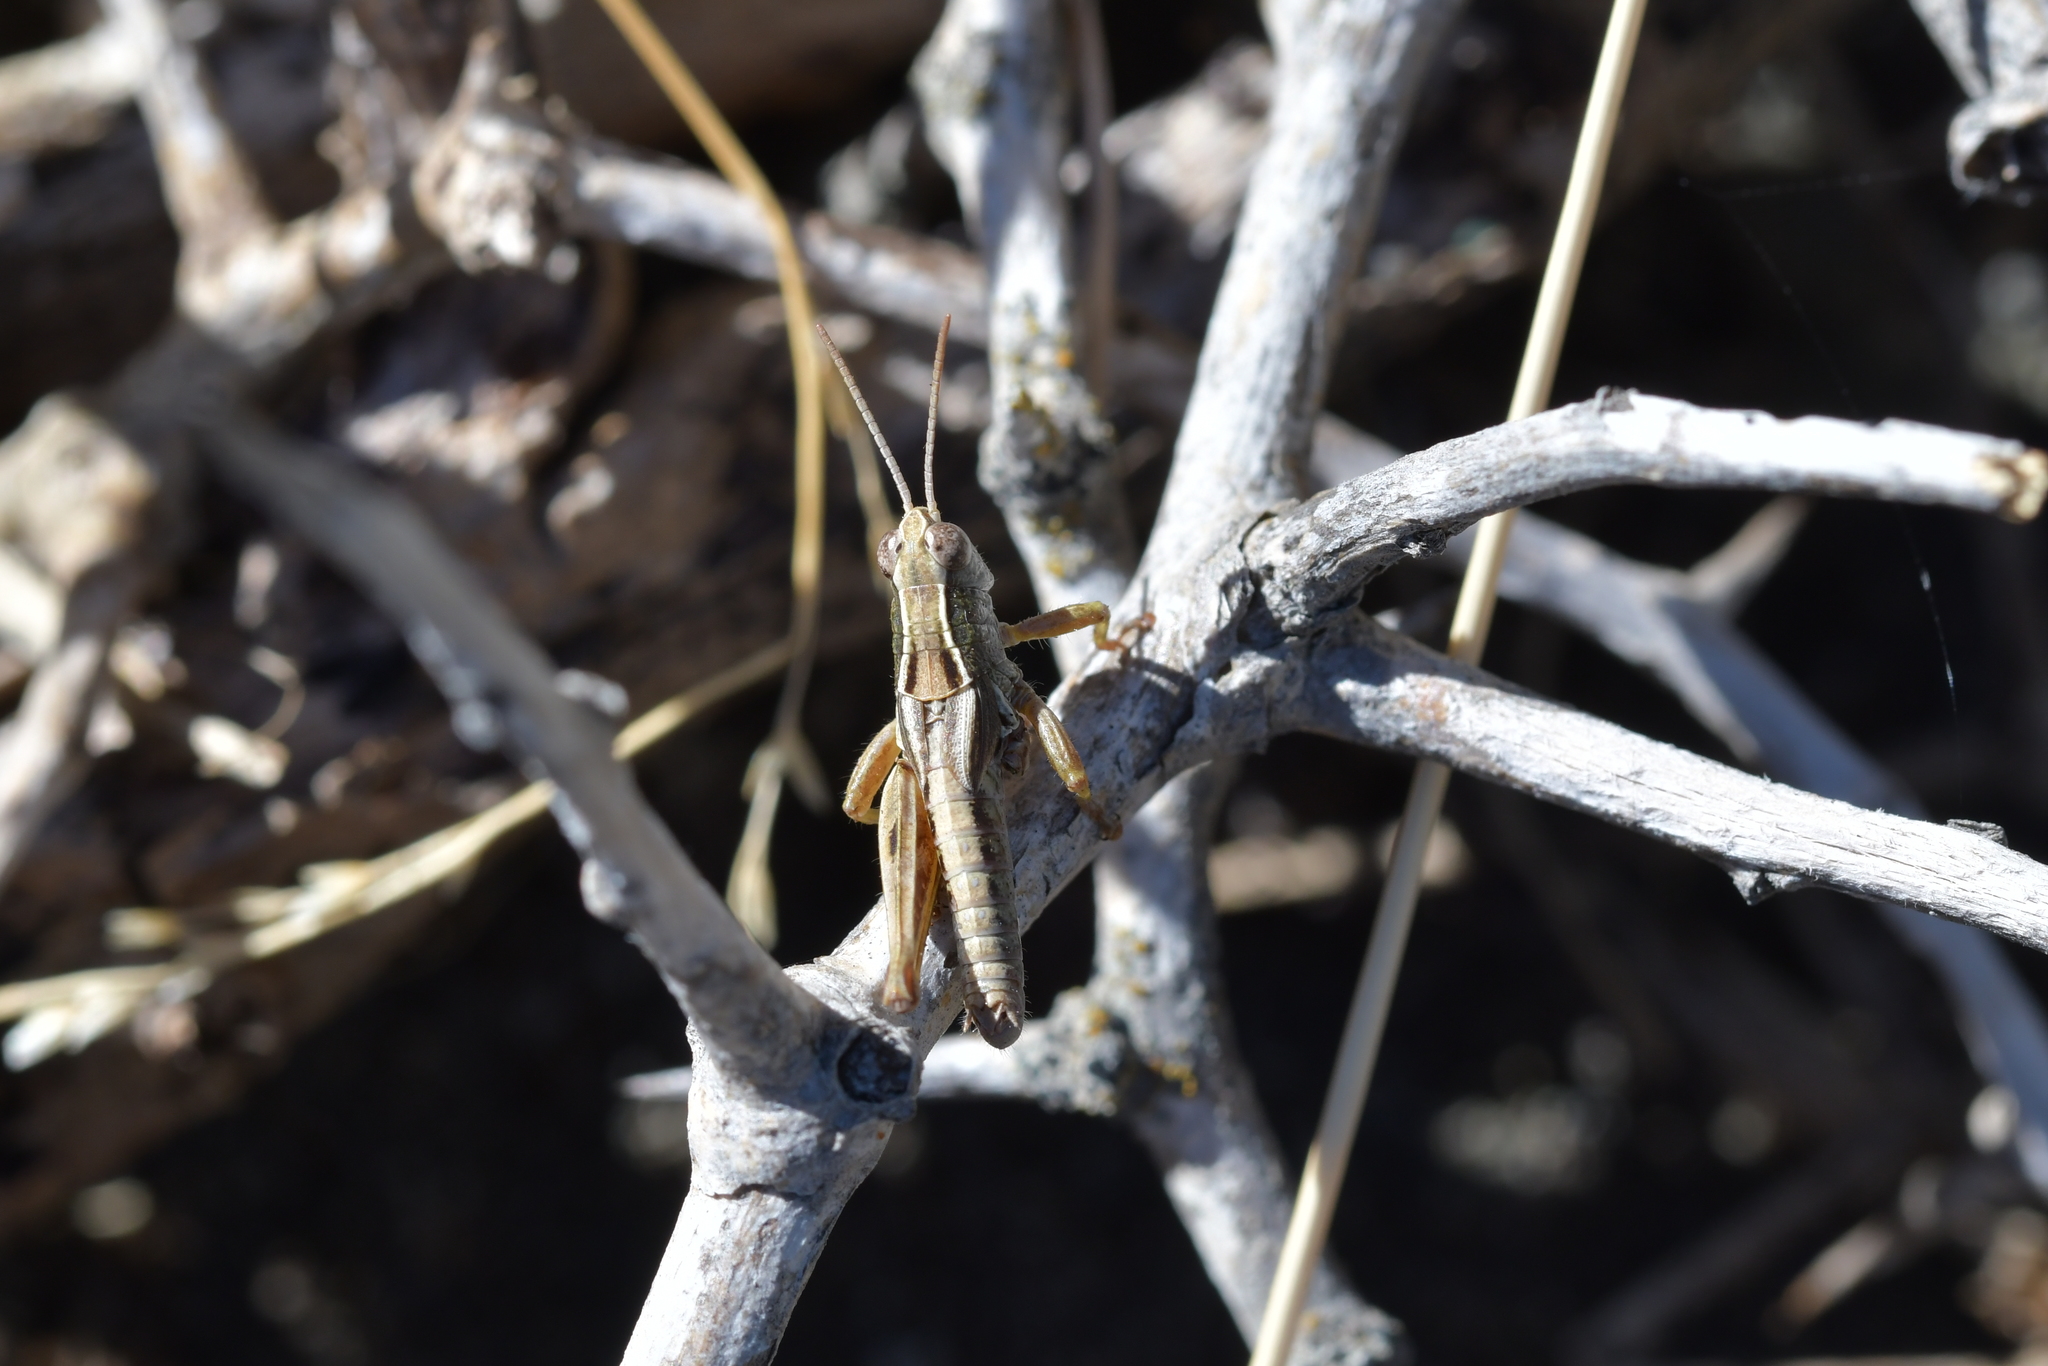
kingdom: Animalia
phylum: Arthropoda
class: Insecta
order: Orthoptera
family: Acrididae
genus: Phaulacridium
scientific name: Phaulacridium marginale
